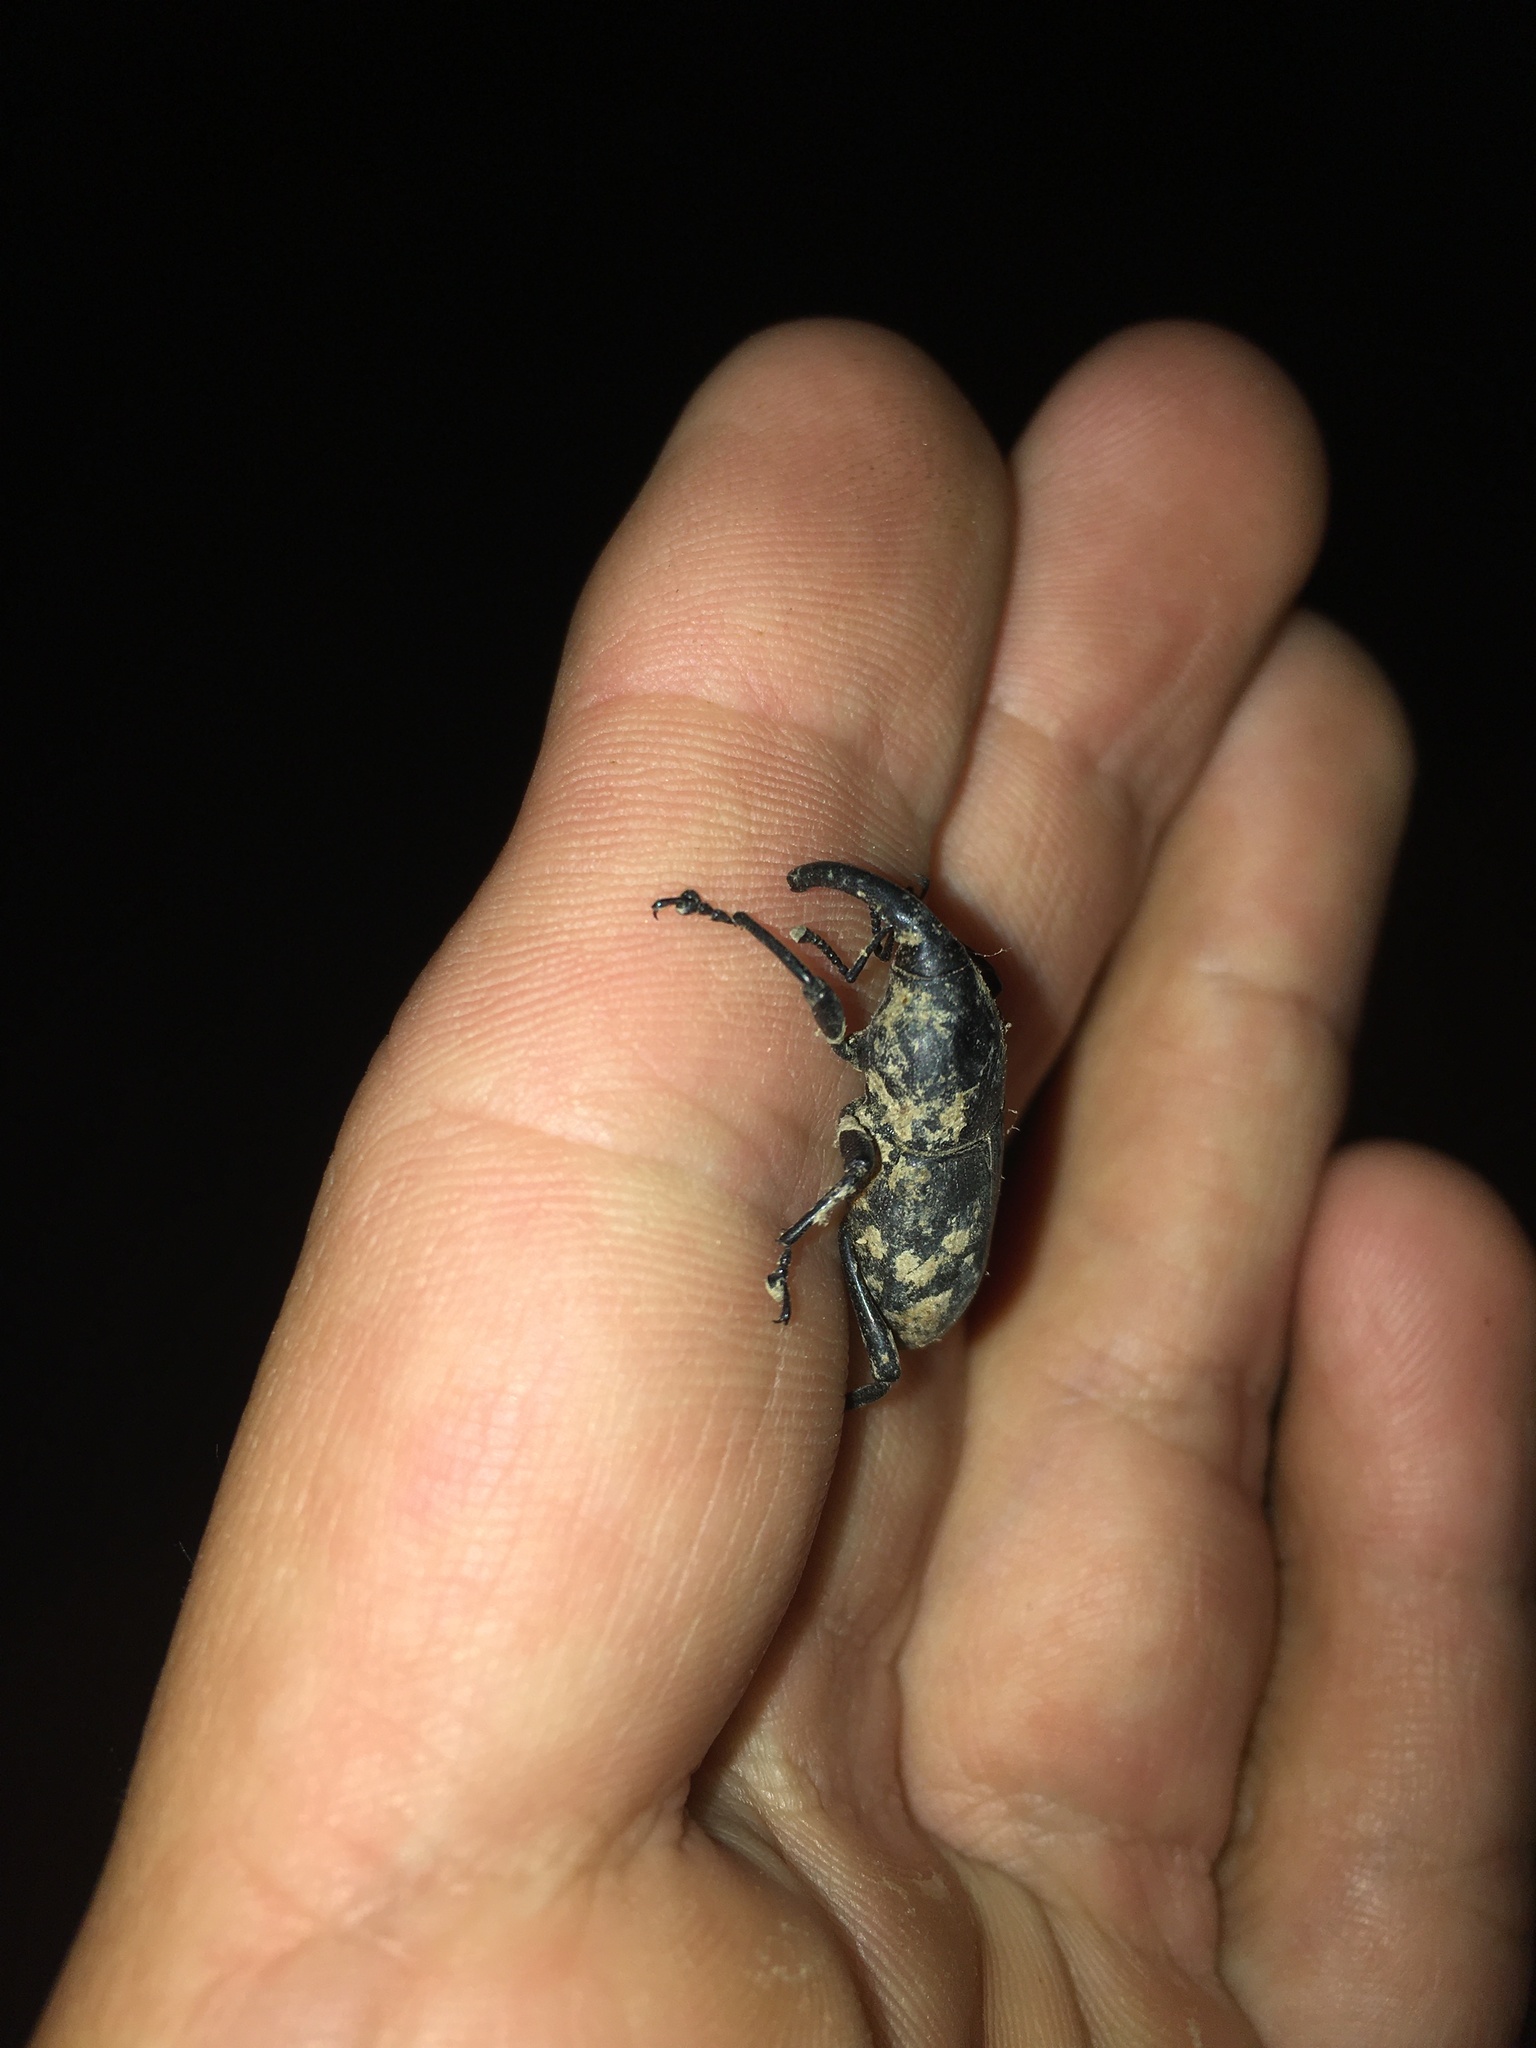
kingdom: Animalia
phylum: Arthropoda
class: Insecta
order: Coleoptera
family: Dryophthoridae
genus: Cactophagus
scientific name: Cactophagus spinolae
